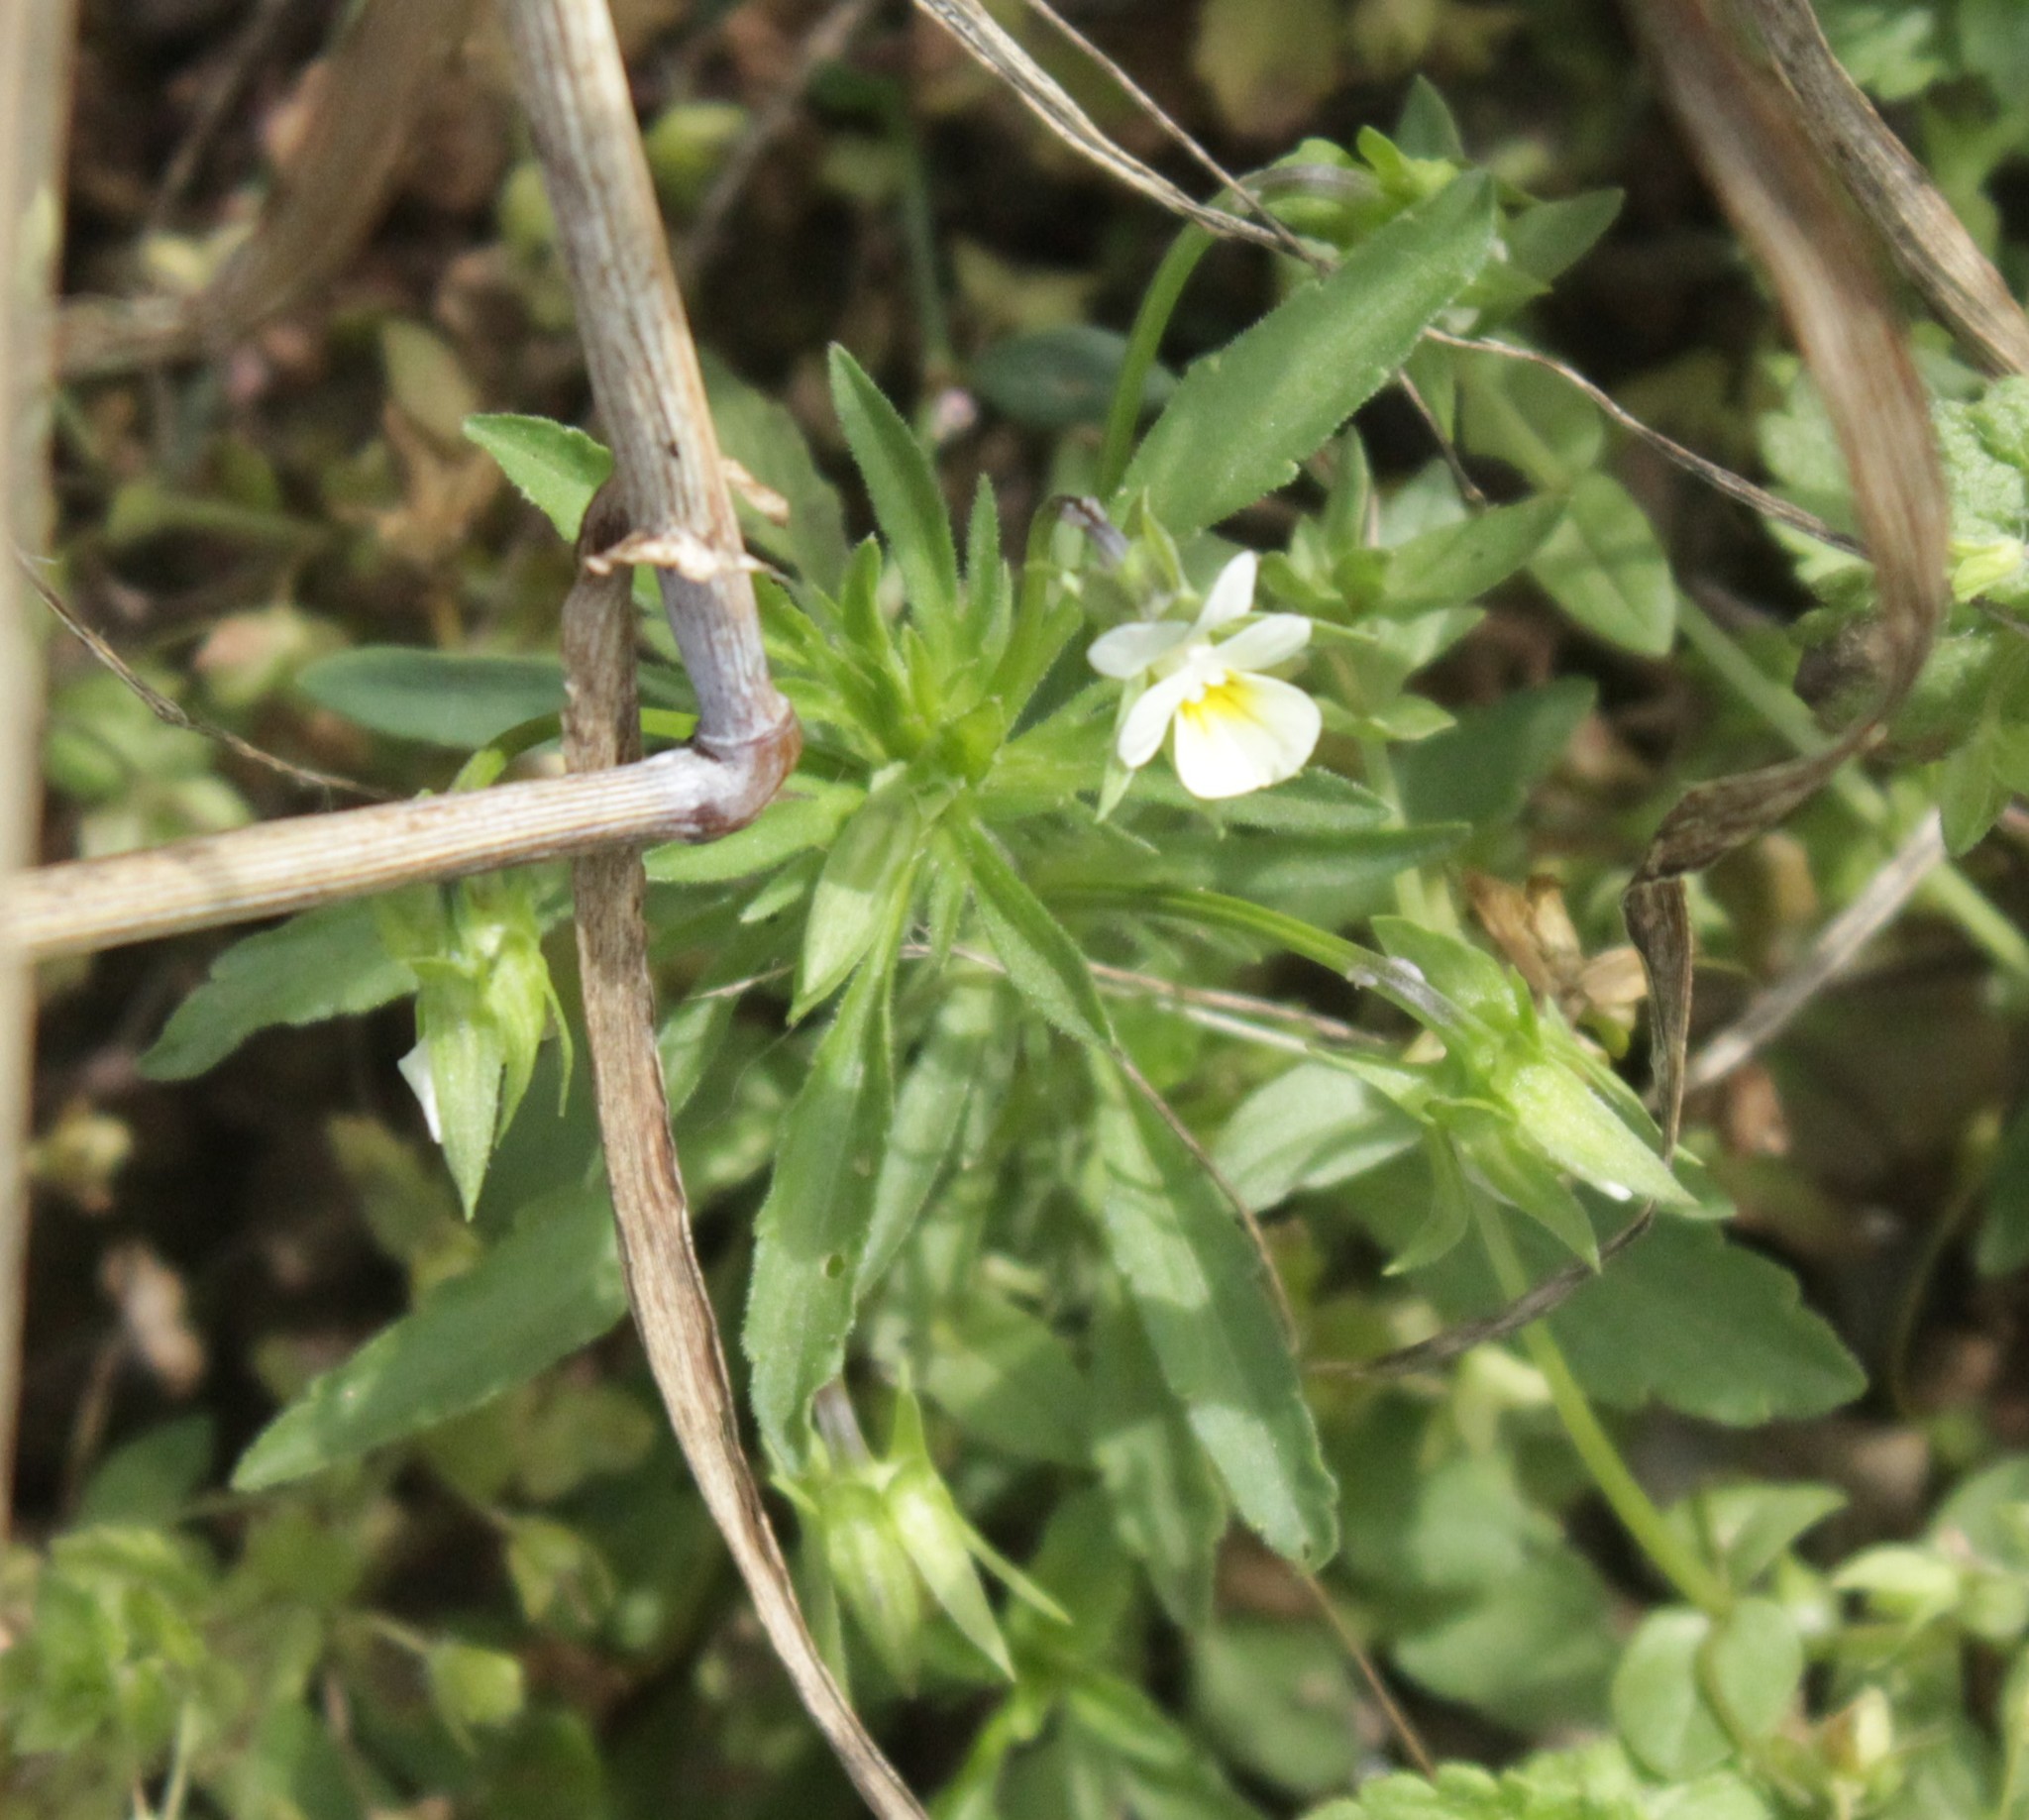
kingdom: Plantae
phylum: Tracheophyta
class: Magnoliopsida
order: Malpighiales
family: Violaceae
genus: Viola
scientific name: Viola arvensis
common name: Field pansy
